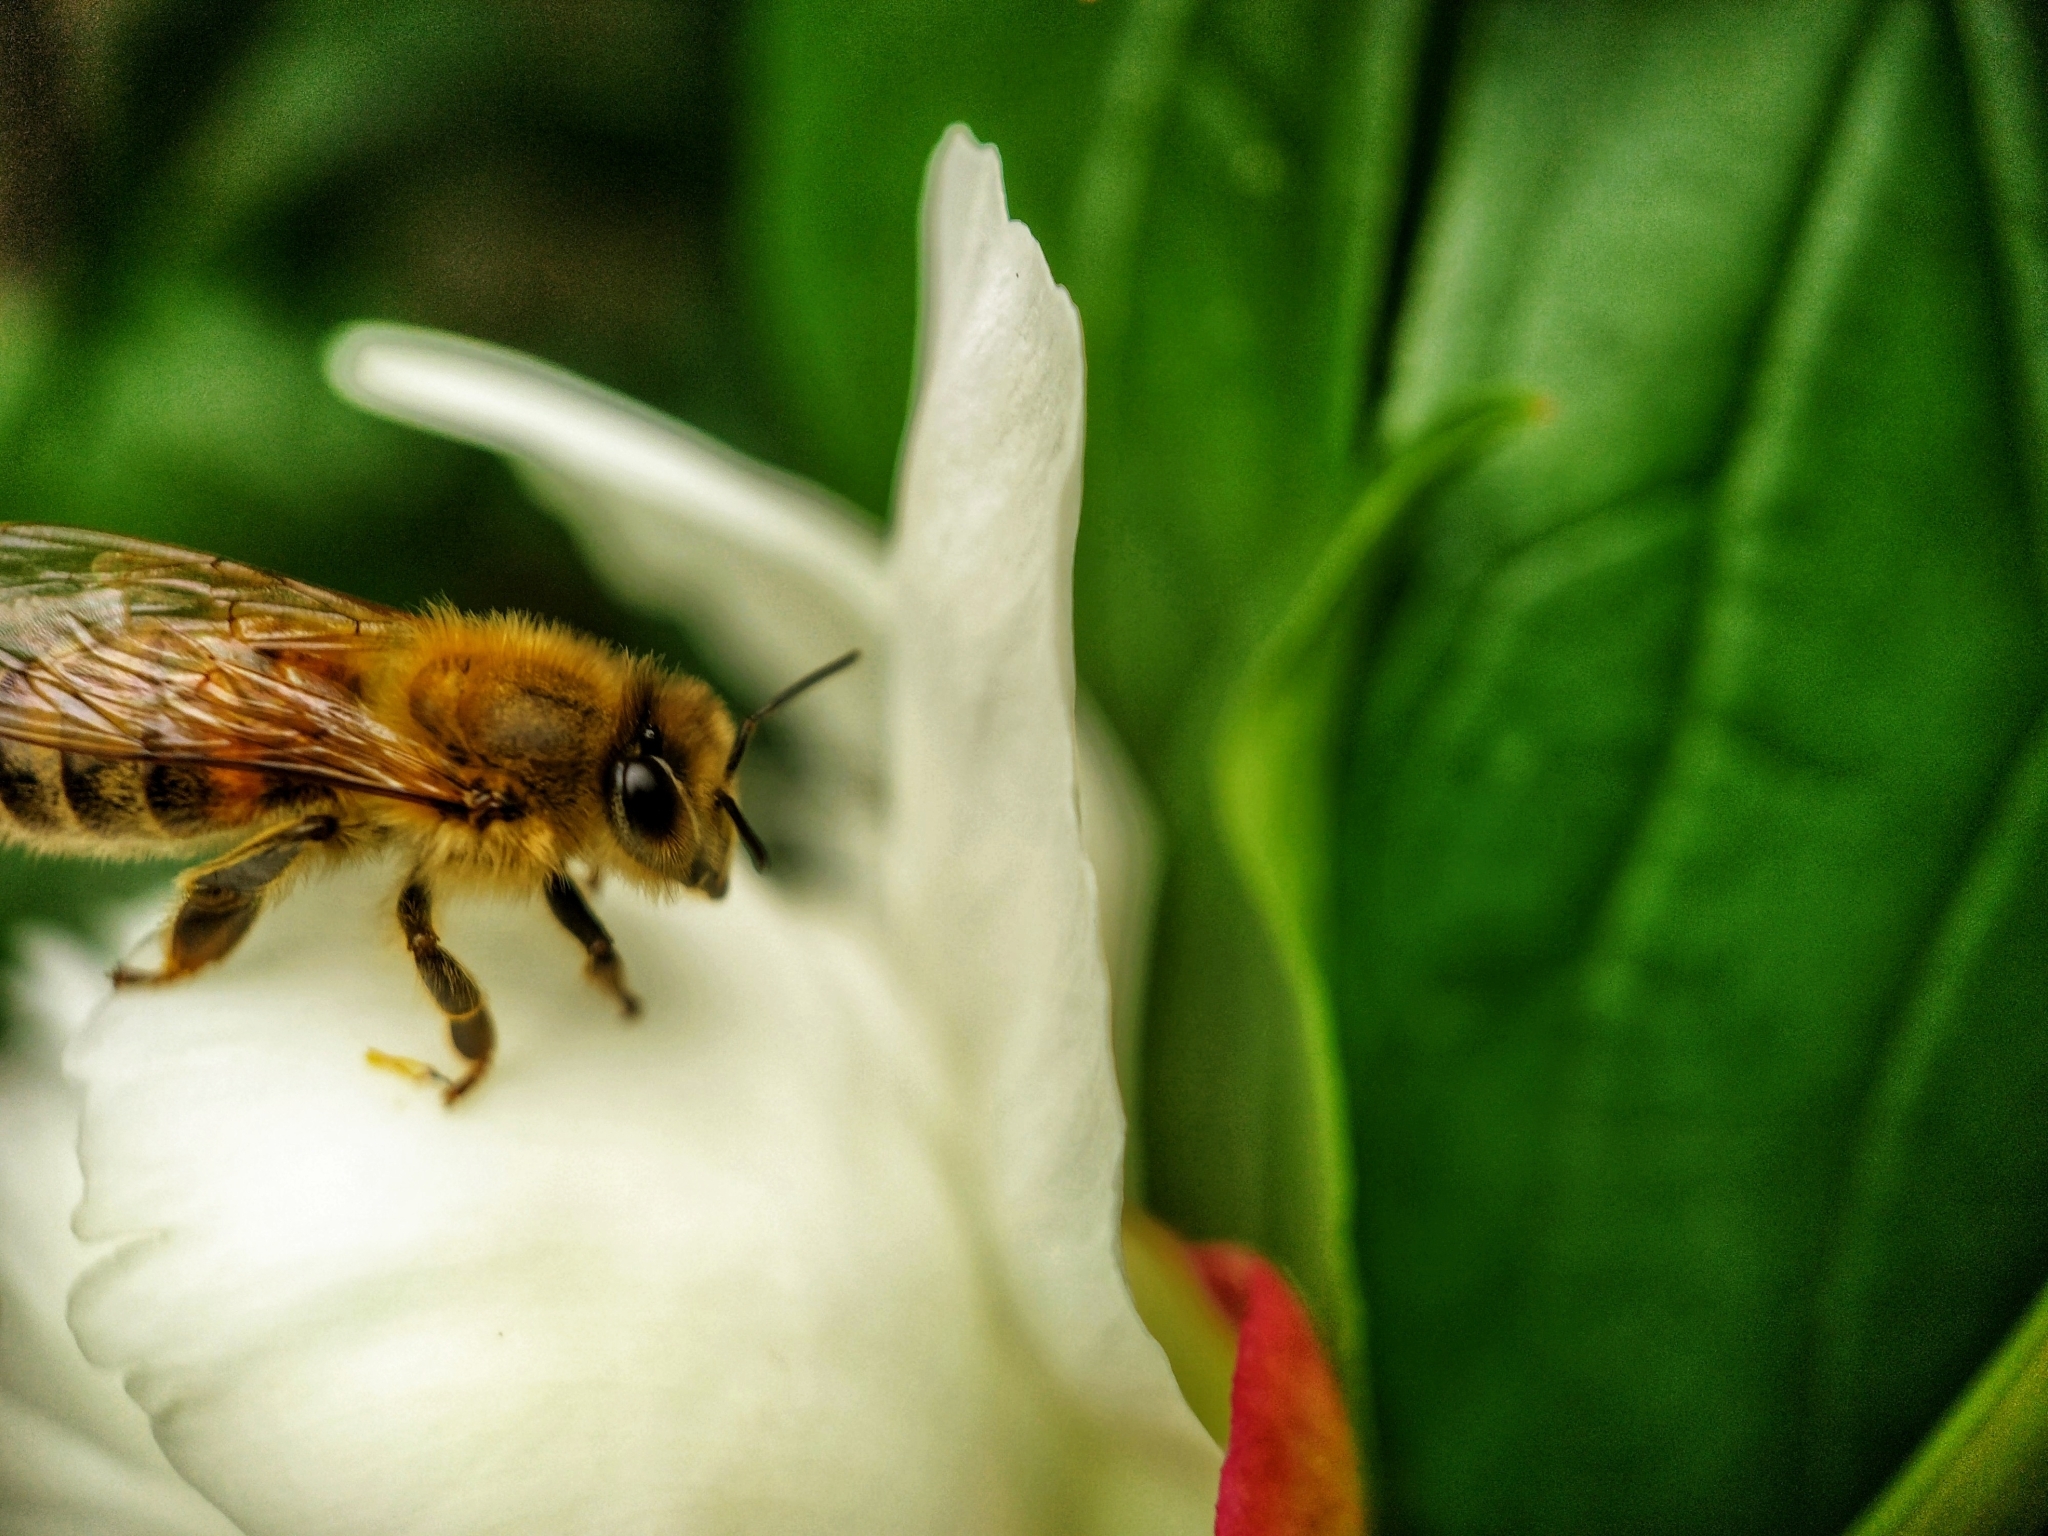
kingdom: Animalia
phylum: Arthropoda
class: Insecta
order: Hymenoptera
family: Apidae
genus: Apis
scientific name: Apis mellifera
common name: Honey bee
